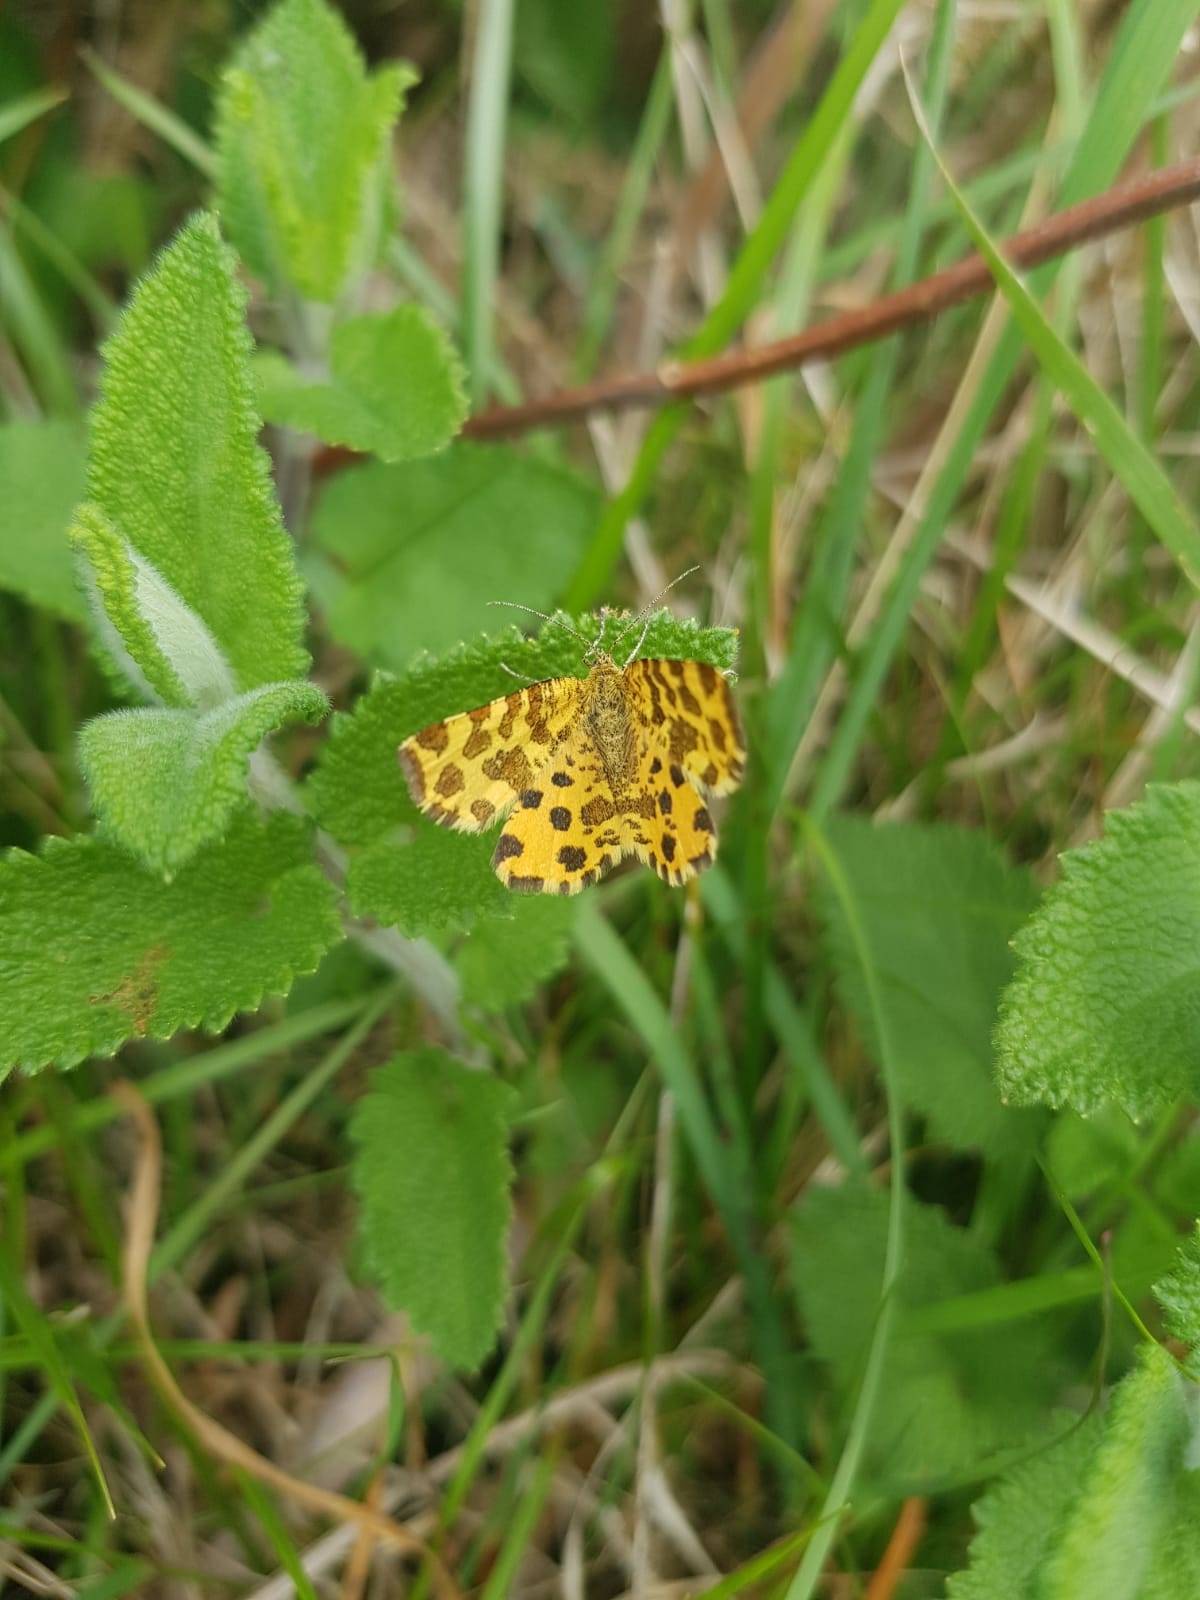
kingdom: Animalia
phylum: Arthropoda
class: Insecta
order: Lepidoptera
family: Geometridae
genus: Pseudopanthera
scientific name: Pseudopanthera macularia
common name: Speckled yellow
